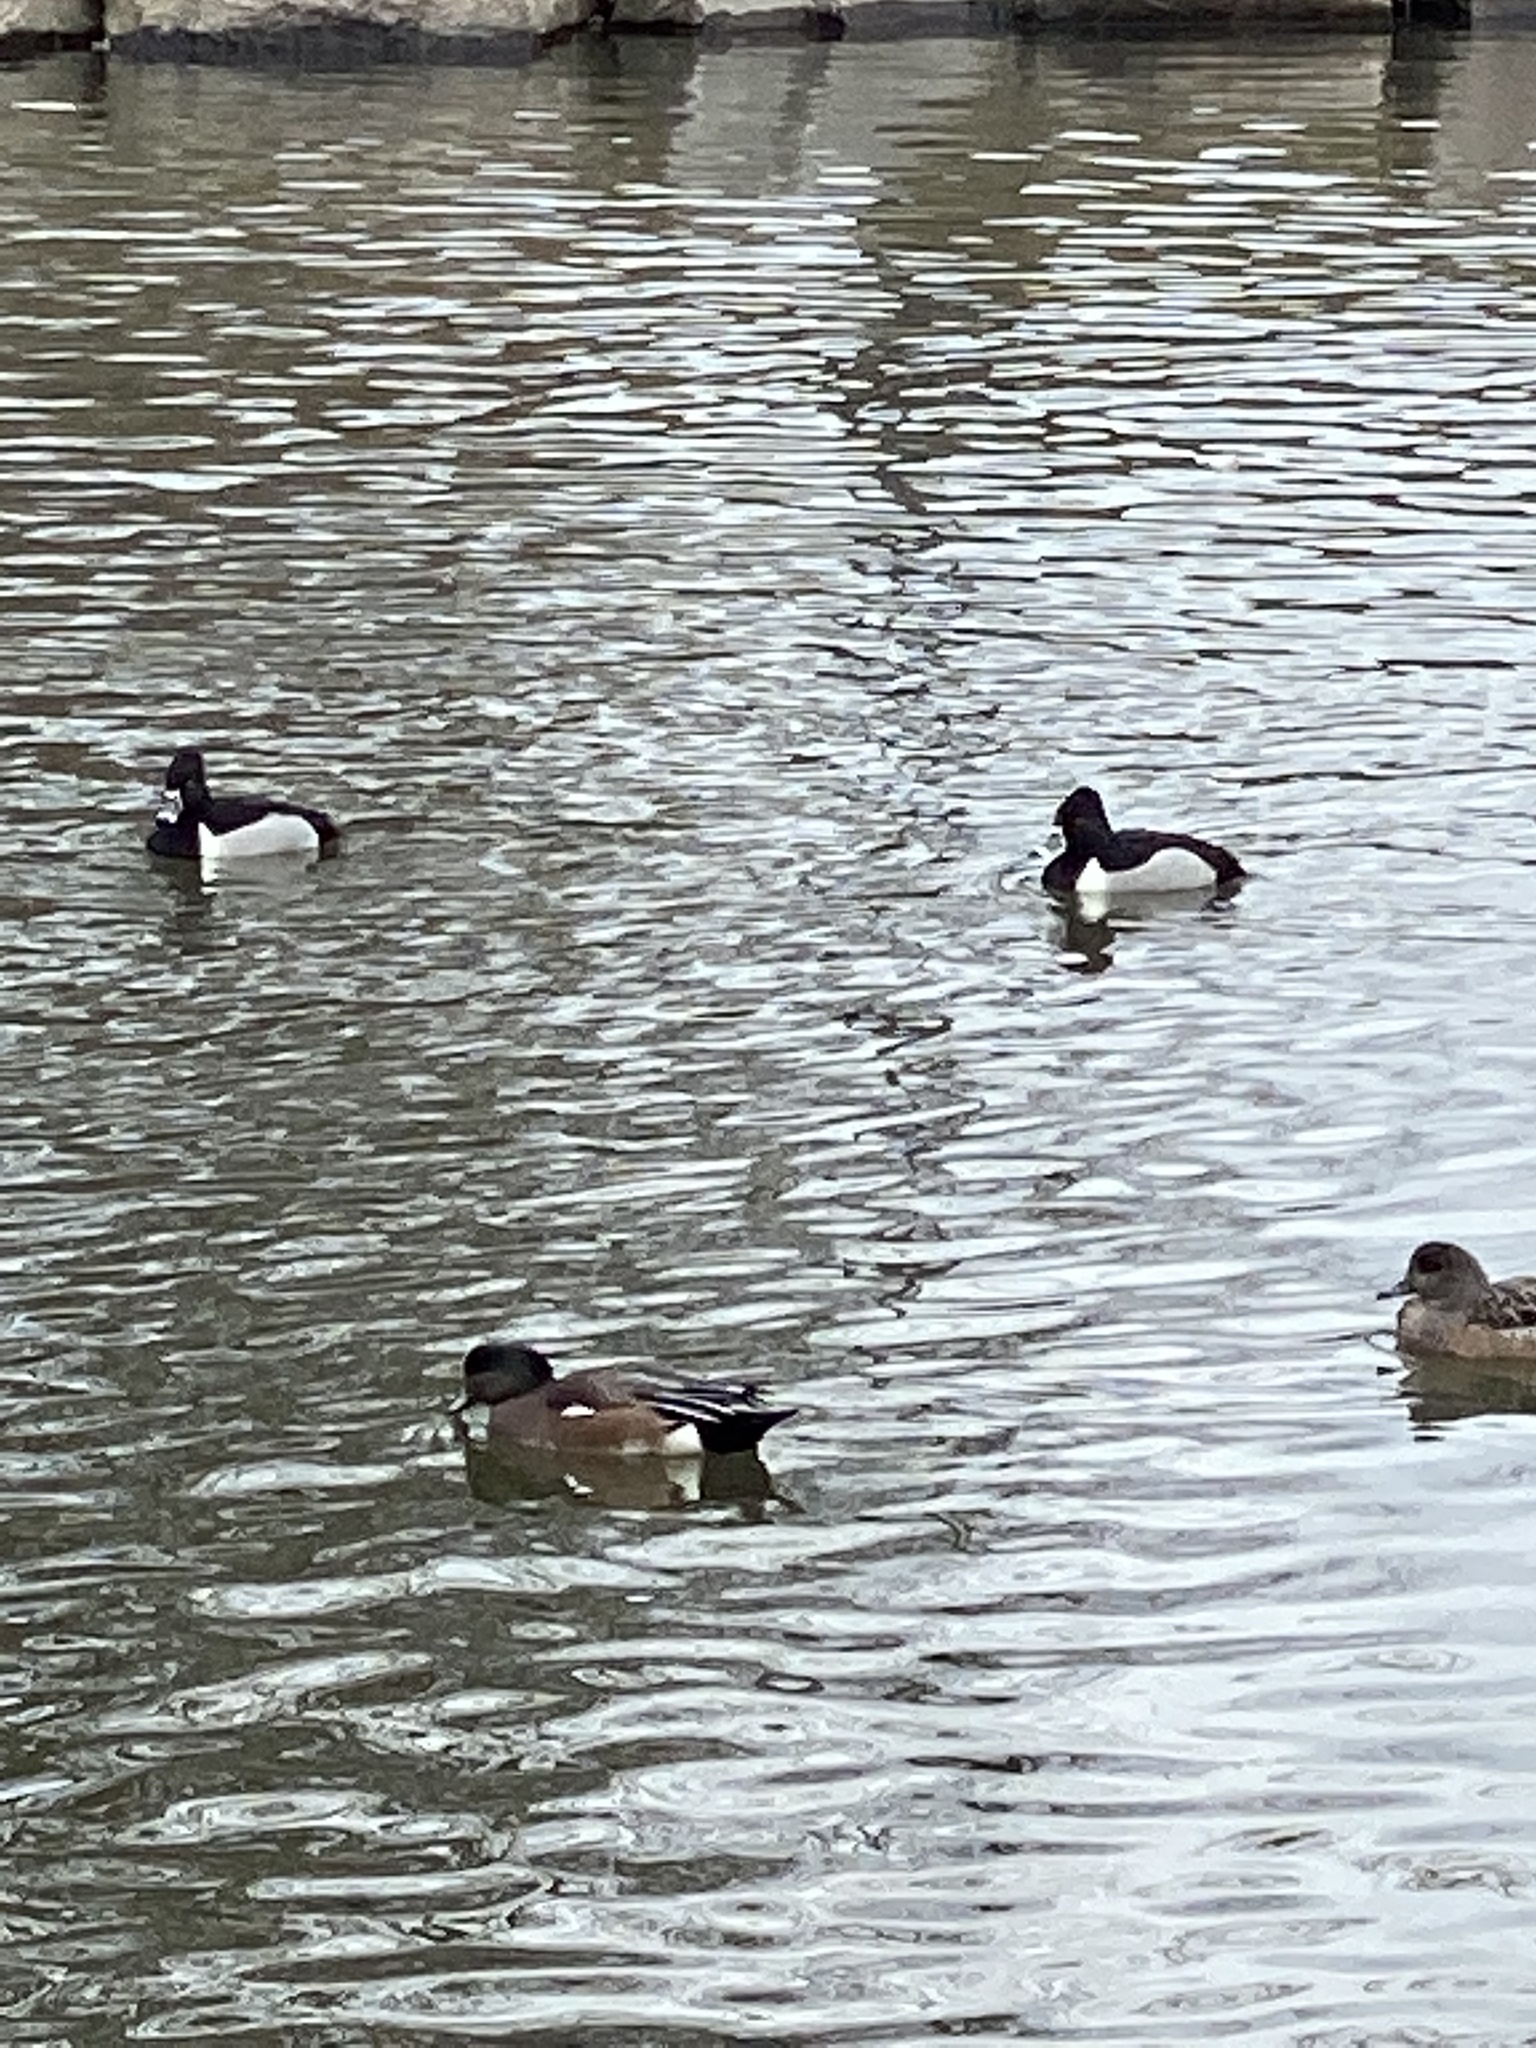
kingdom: Animalia
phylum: Chordata
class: Aves
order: Anseriformes
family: Anatidae
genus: Aythya
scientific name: Aythya collaris
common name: Ring-necked duck
